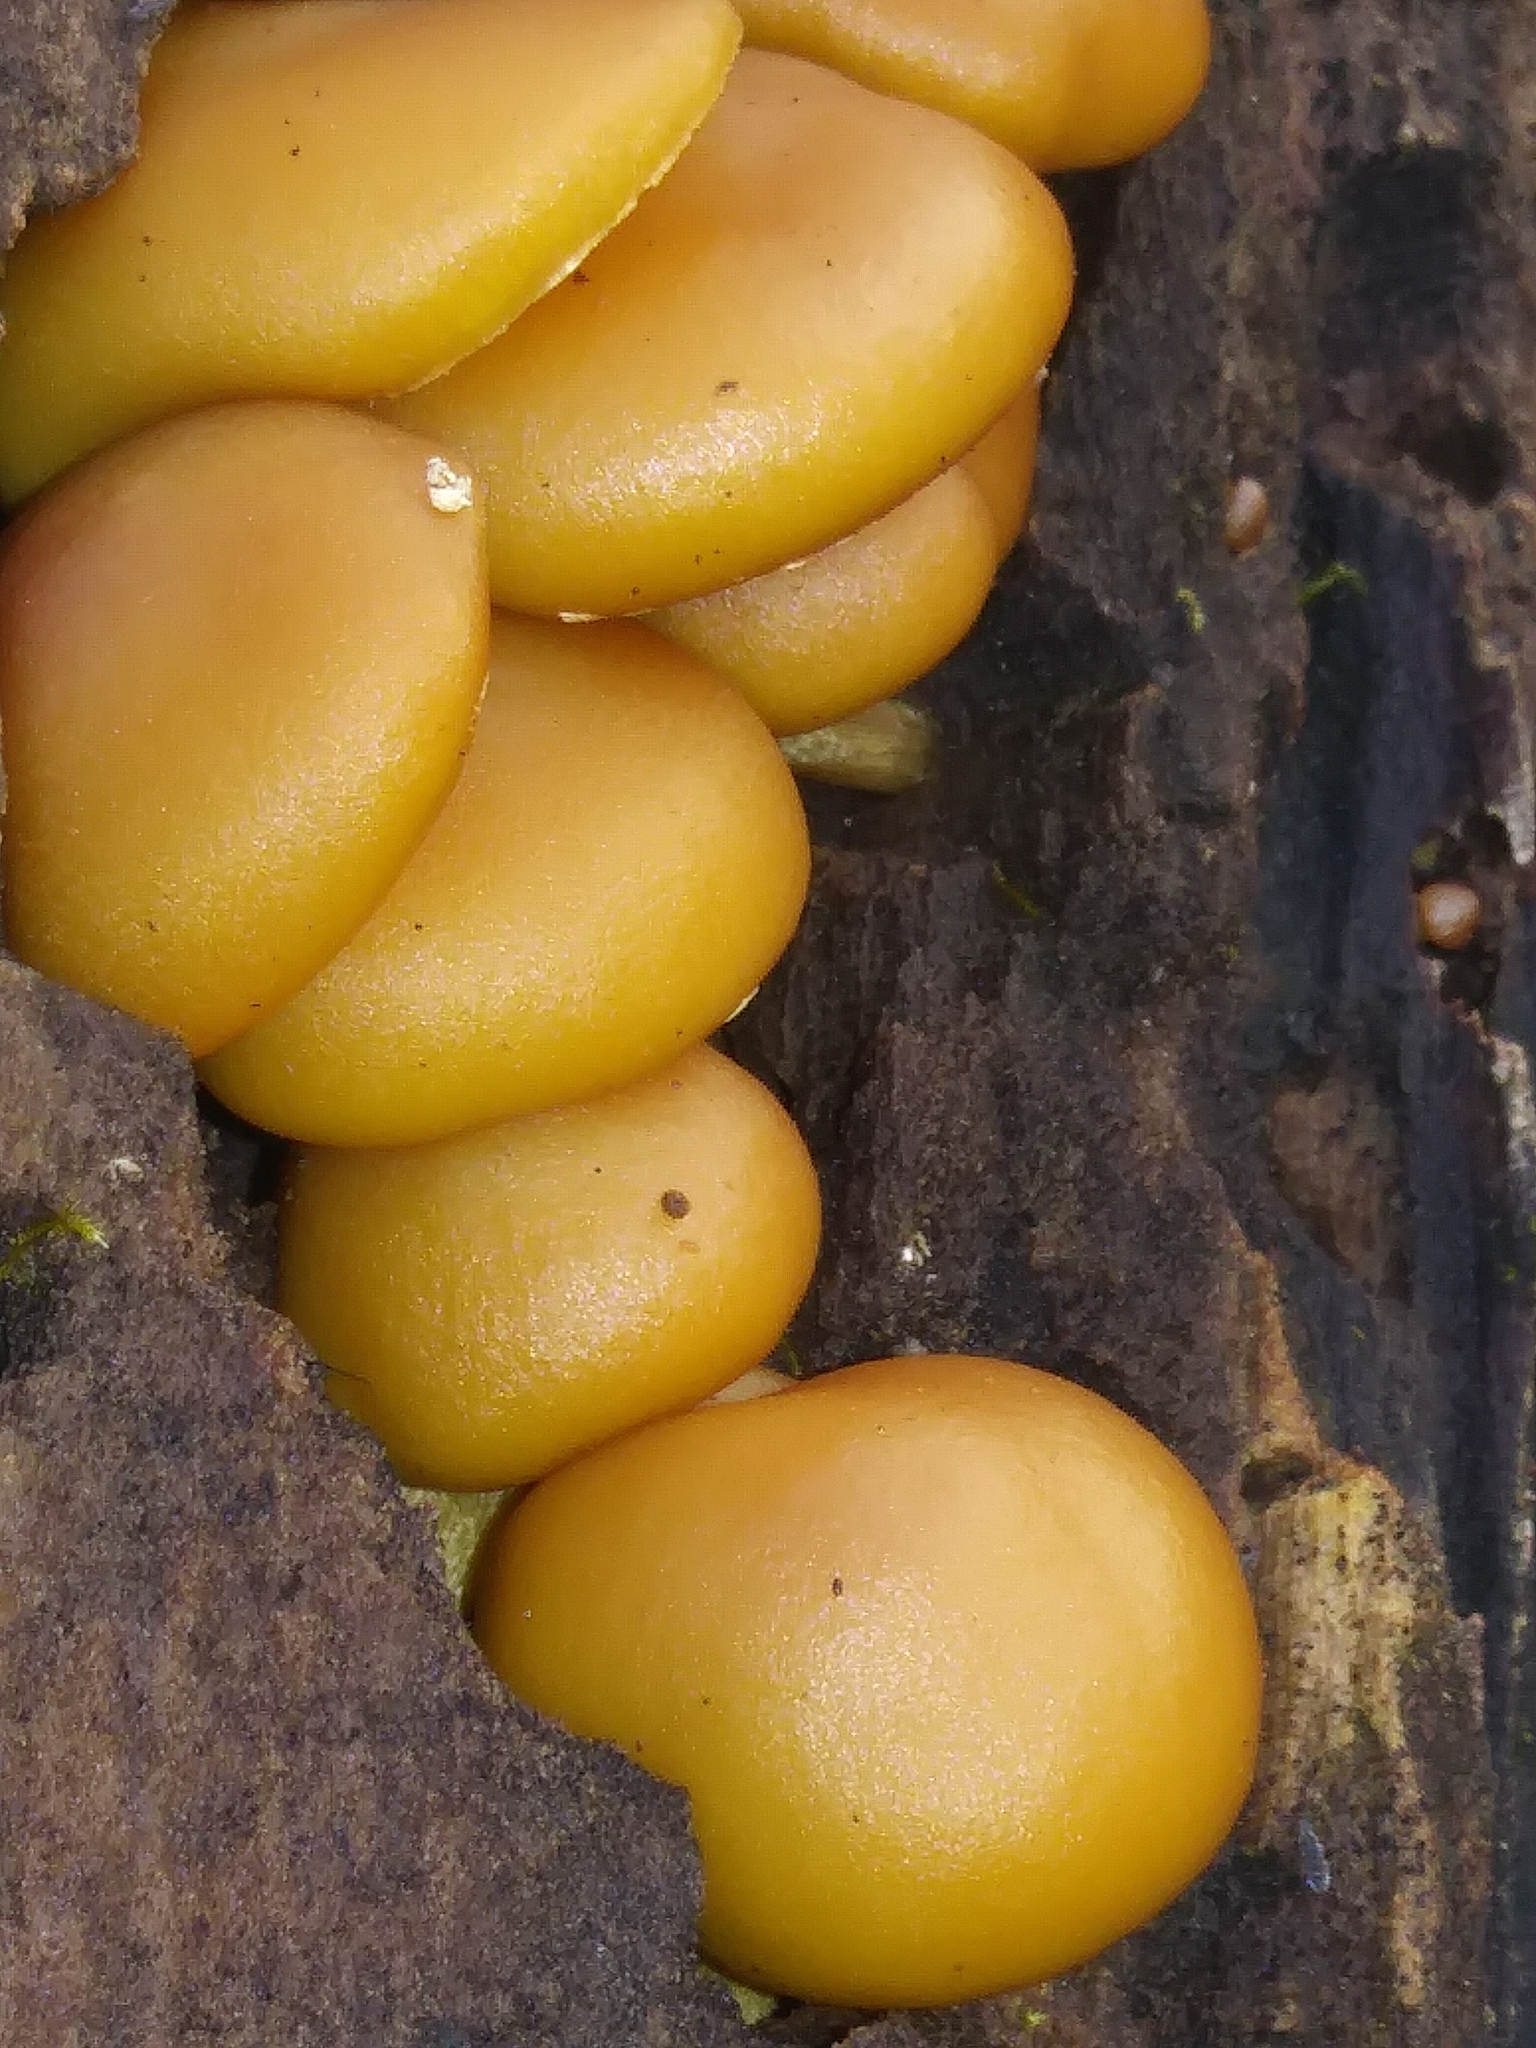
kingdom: Fungi
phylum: Basidiomycota
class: Agaricomycetes
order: Agaricales
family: Hymenogastraceae
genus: Galerina
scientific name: Galerina marginata
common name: Funeral bell
